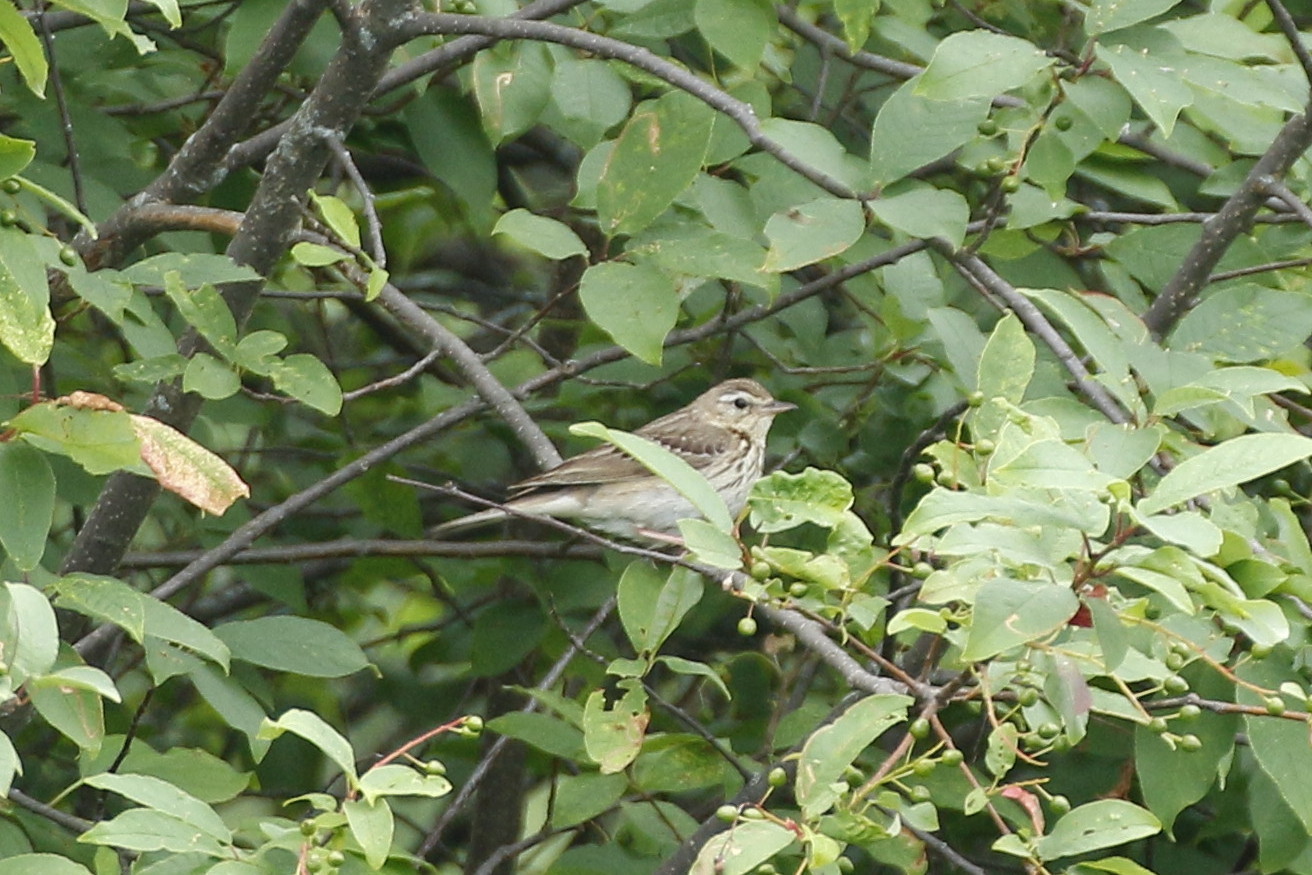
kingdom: Animalia
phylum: Chordata
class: Aves
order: Passeriformes
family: Motacillidae
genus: Anthus
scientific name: Anthus hodgsoni
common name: Olive-backed pipit
